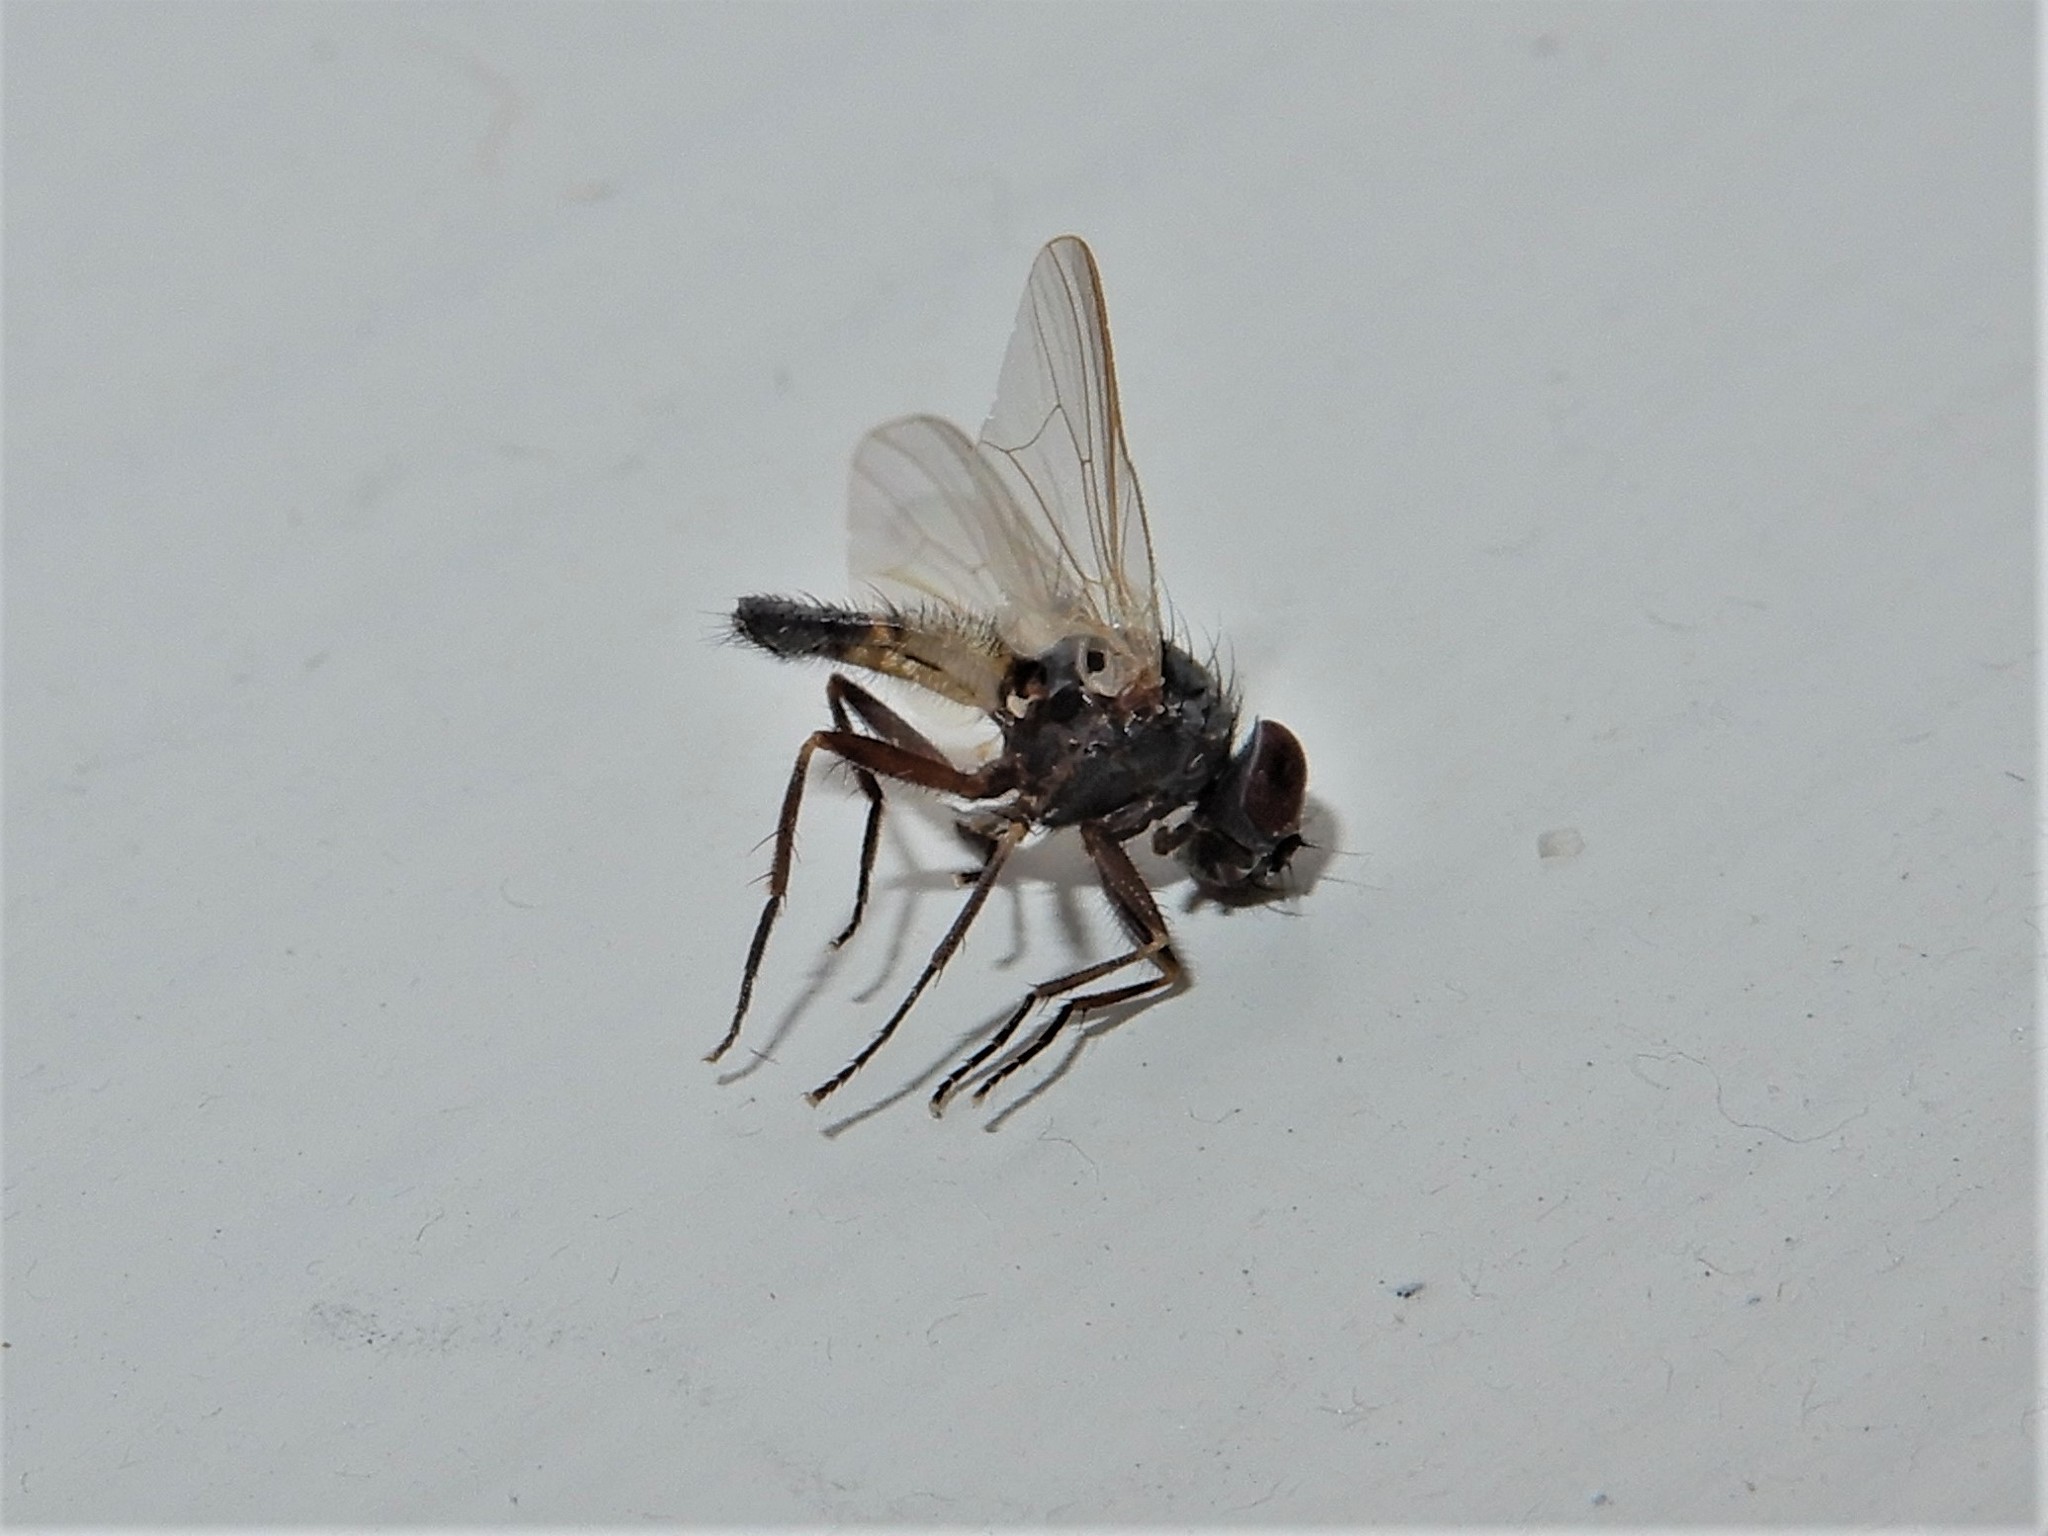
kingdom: Animalia
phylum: Arthropoda
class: Insecta
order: Diptera
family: Fanniidae
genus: Fannia
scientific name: Fannia canicularis
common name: Little house fly
